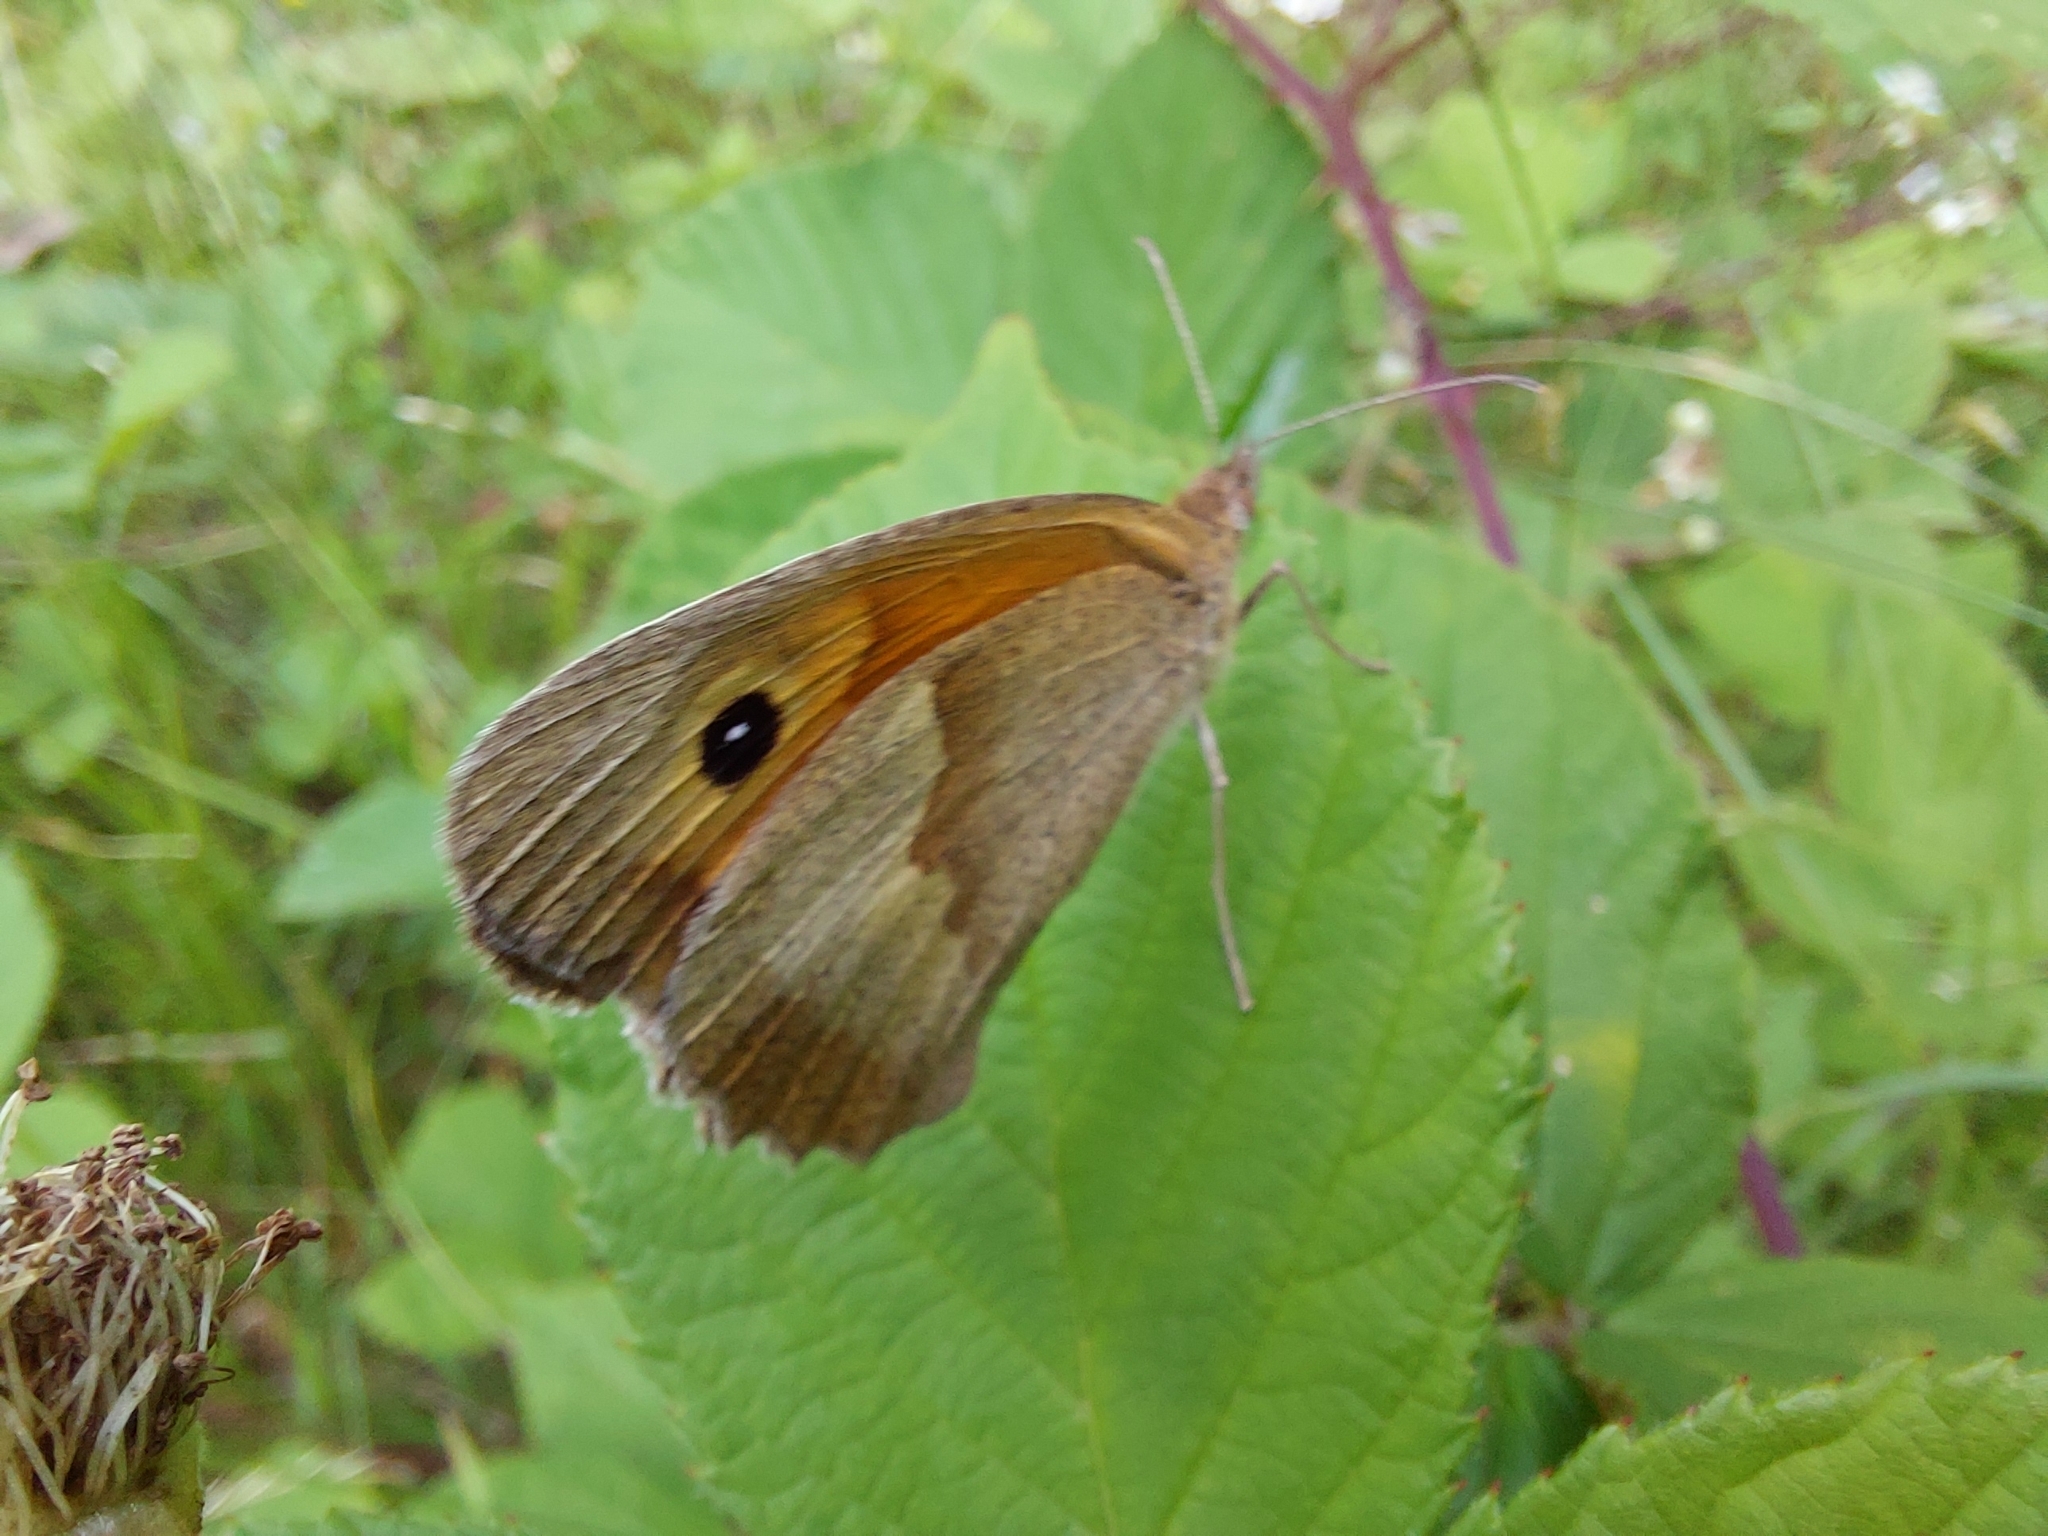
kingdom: Animalia
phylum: Arthropoda
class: Insecta
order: Lepidoptera
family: Nymphalidae
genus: Maniola
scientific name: Maniola jurtina
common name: Meadow brown
